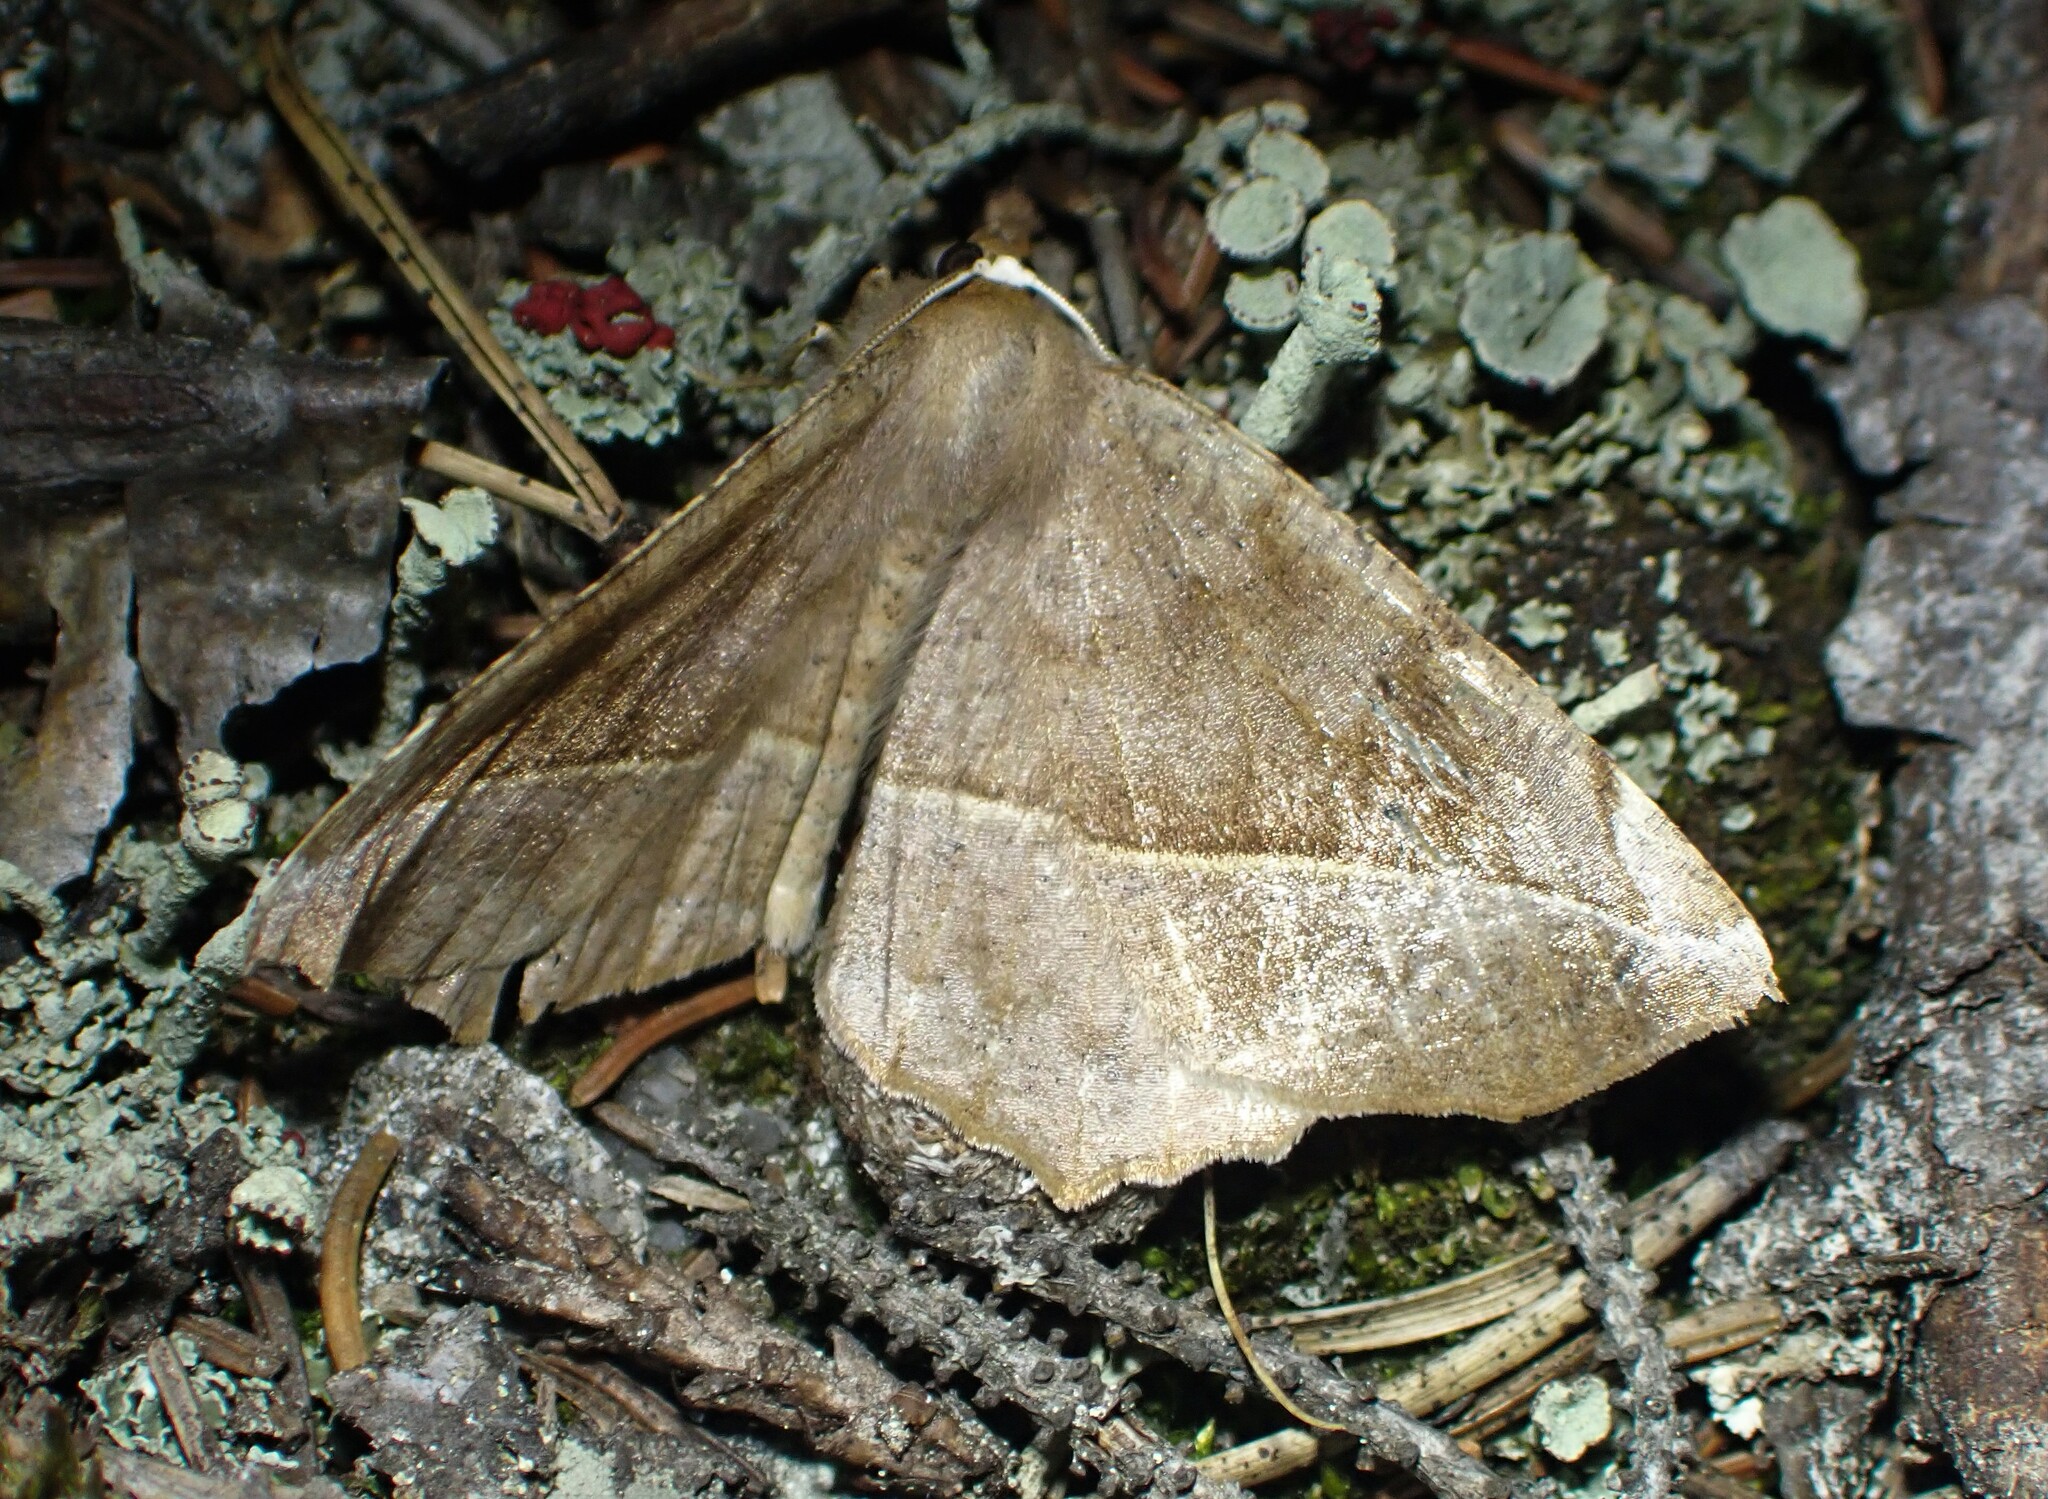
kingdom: Animalia
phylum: Arthropoda
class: Insecta
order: Lepidoptera
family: Geometridae
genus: Eutrapela
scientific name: Eutrapela clemataria
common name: Curved-toothed geometer
